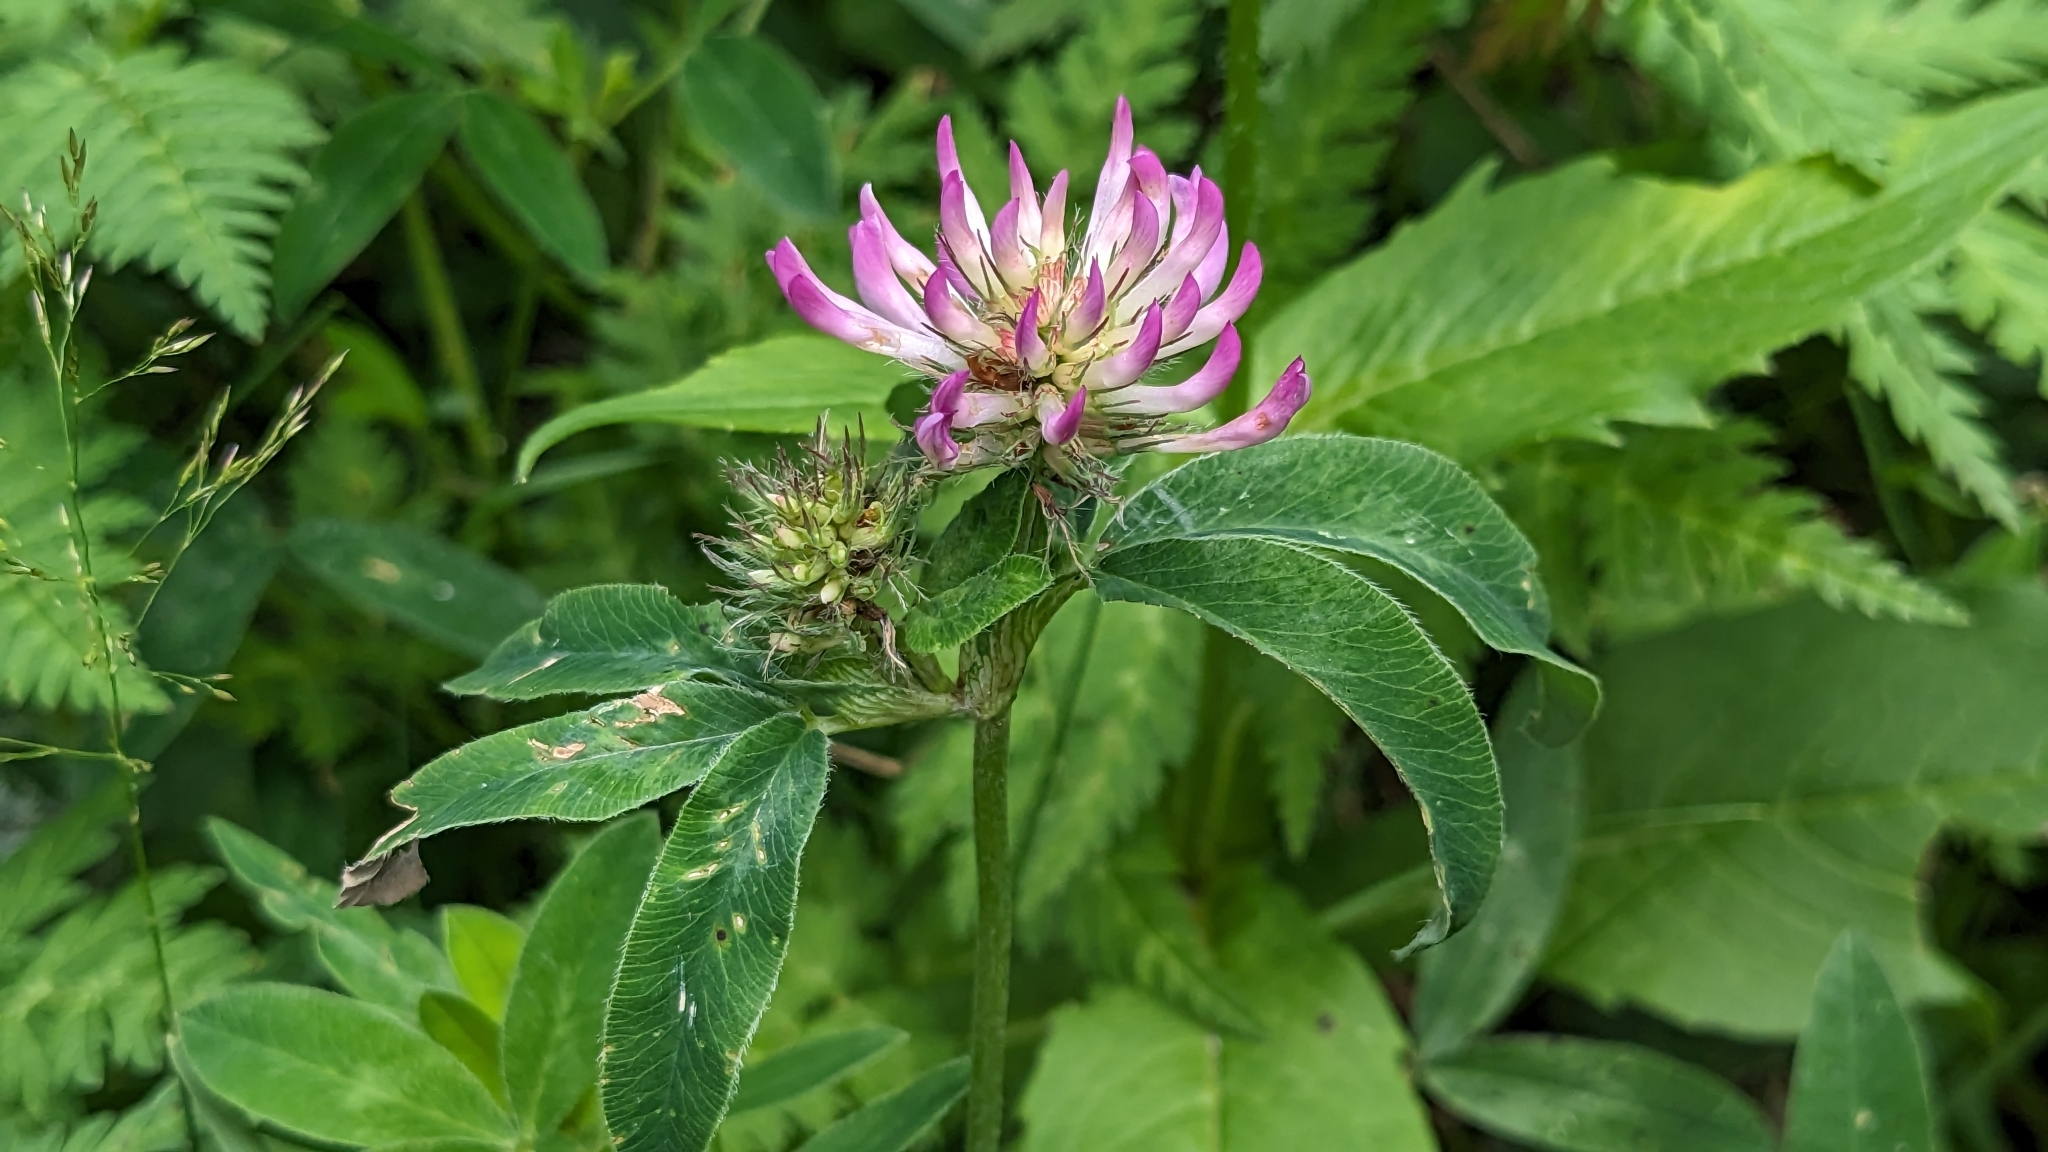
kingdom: Plantae
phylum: Tracheophyta
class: Magnoliopsida
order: Fabales
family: Fabaceae
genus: Trifolium
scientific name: Trifolium medium
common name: Zigzag clover
